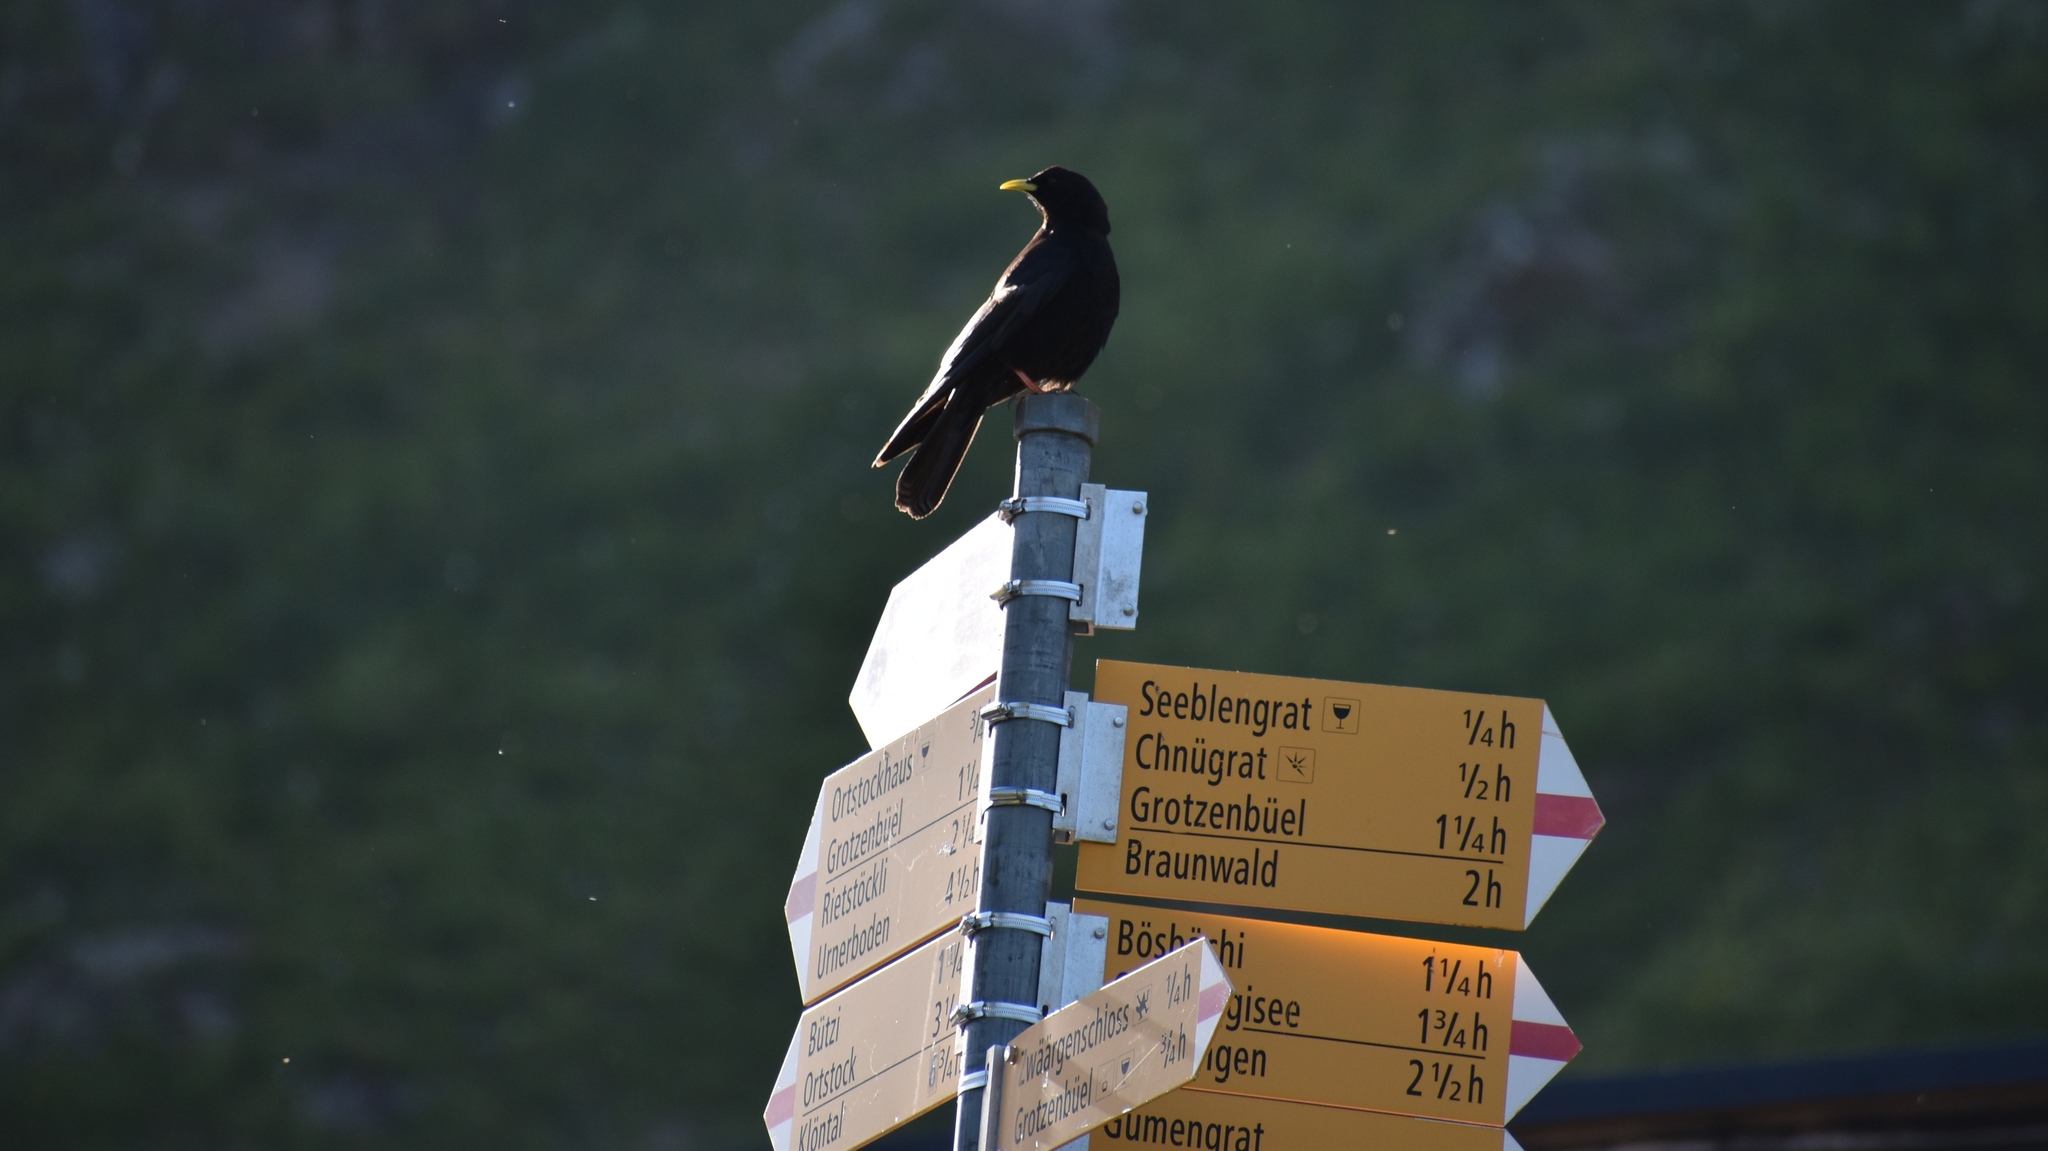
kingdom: Animalia
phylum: Chordata
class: Aves
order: Passeriformes
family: Corvidae
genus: Pyrrhocorax
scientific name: Pyrrhocorax graculus
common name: Alpine chough
